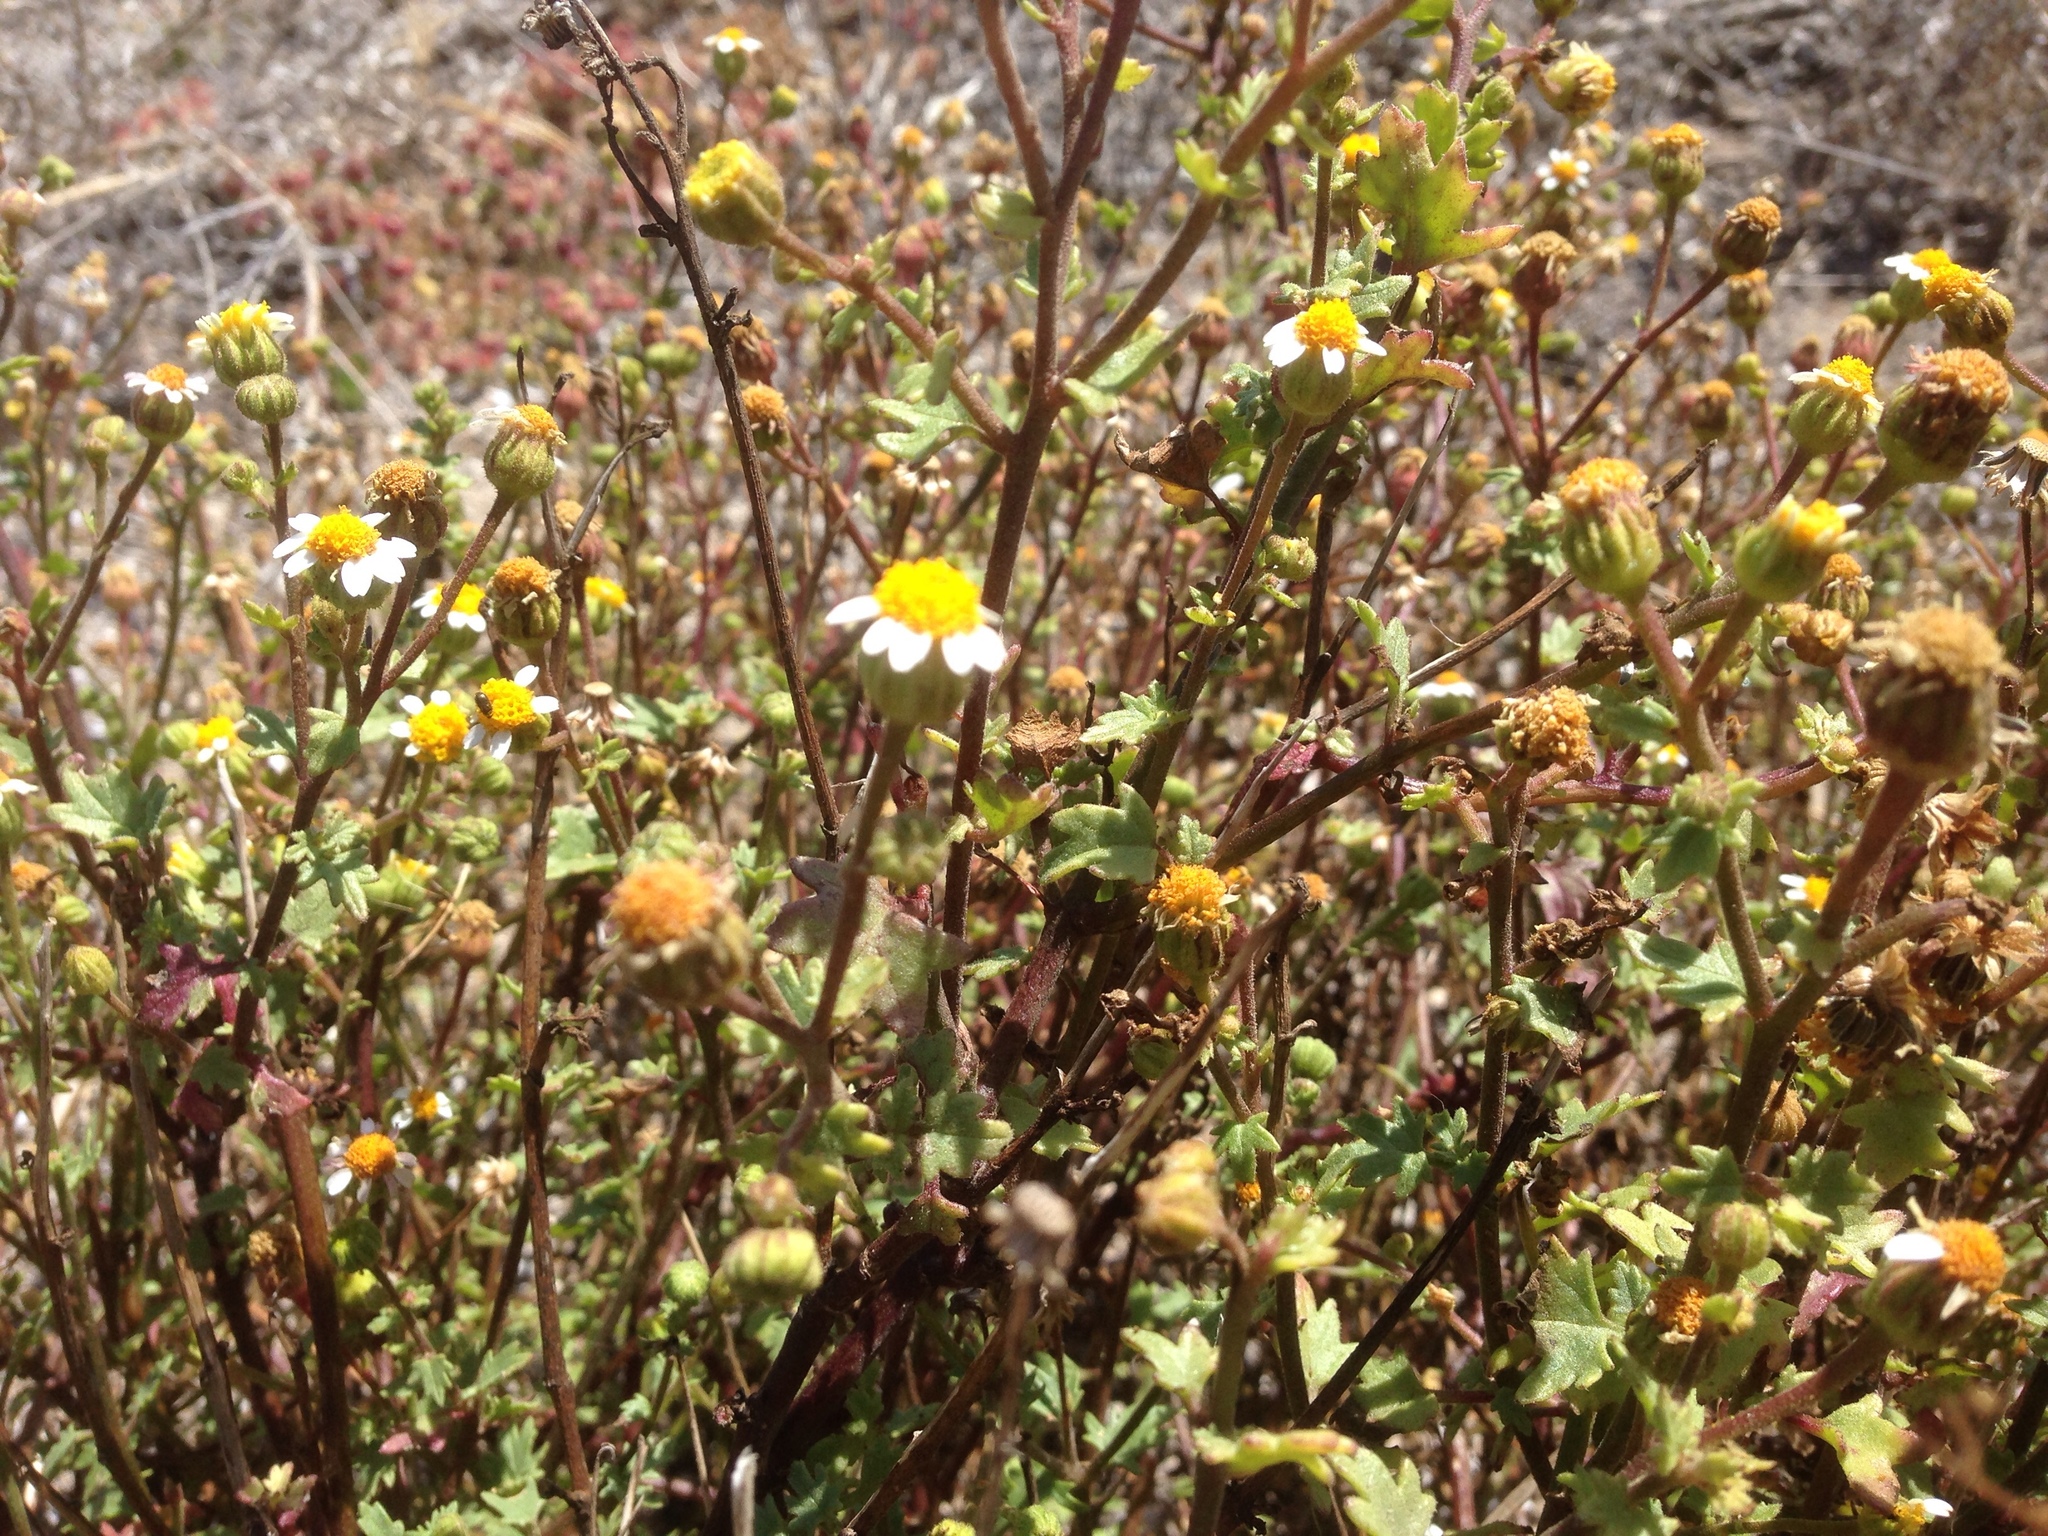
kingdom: Plantae
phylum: Tracheophyta
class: Magnoliopsida
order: Asterales
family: Asteraceae
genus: Laphamia
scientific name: Laphamia emoryi
